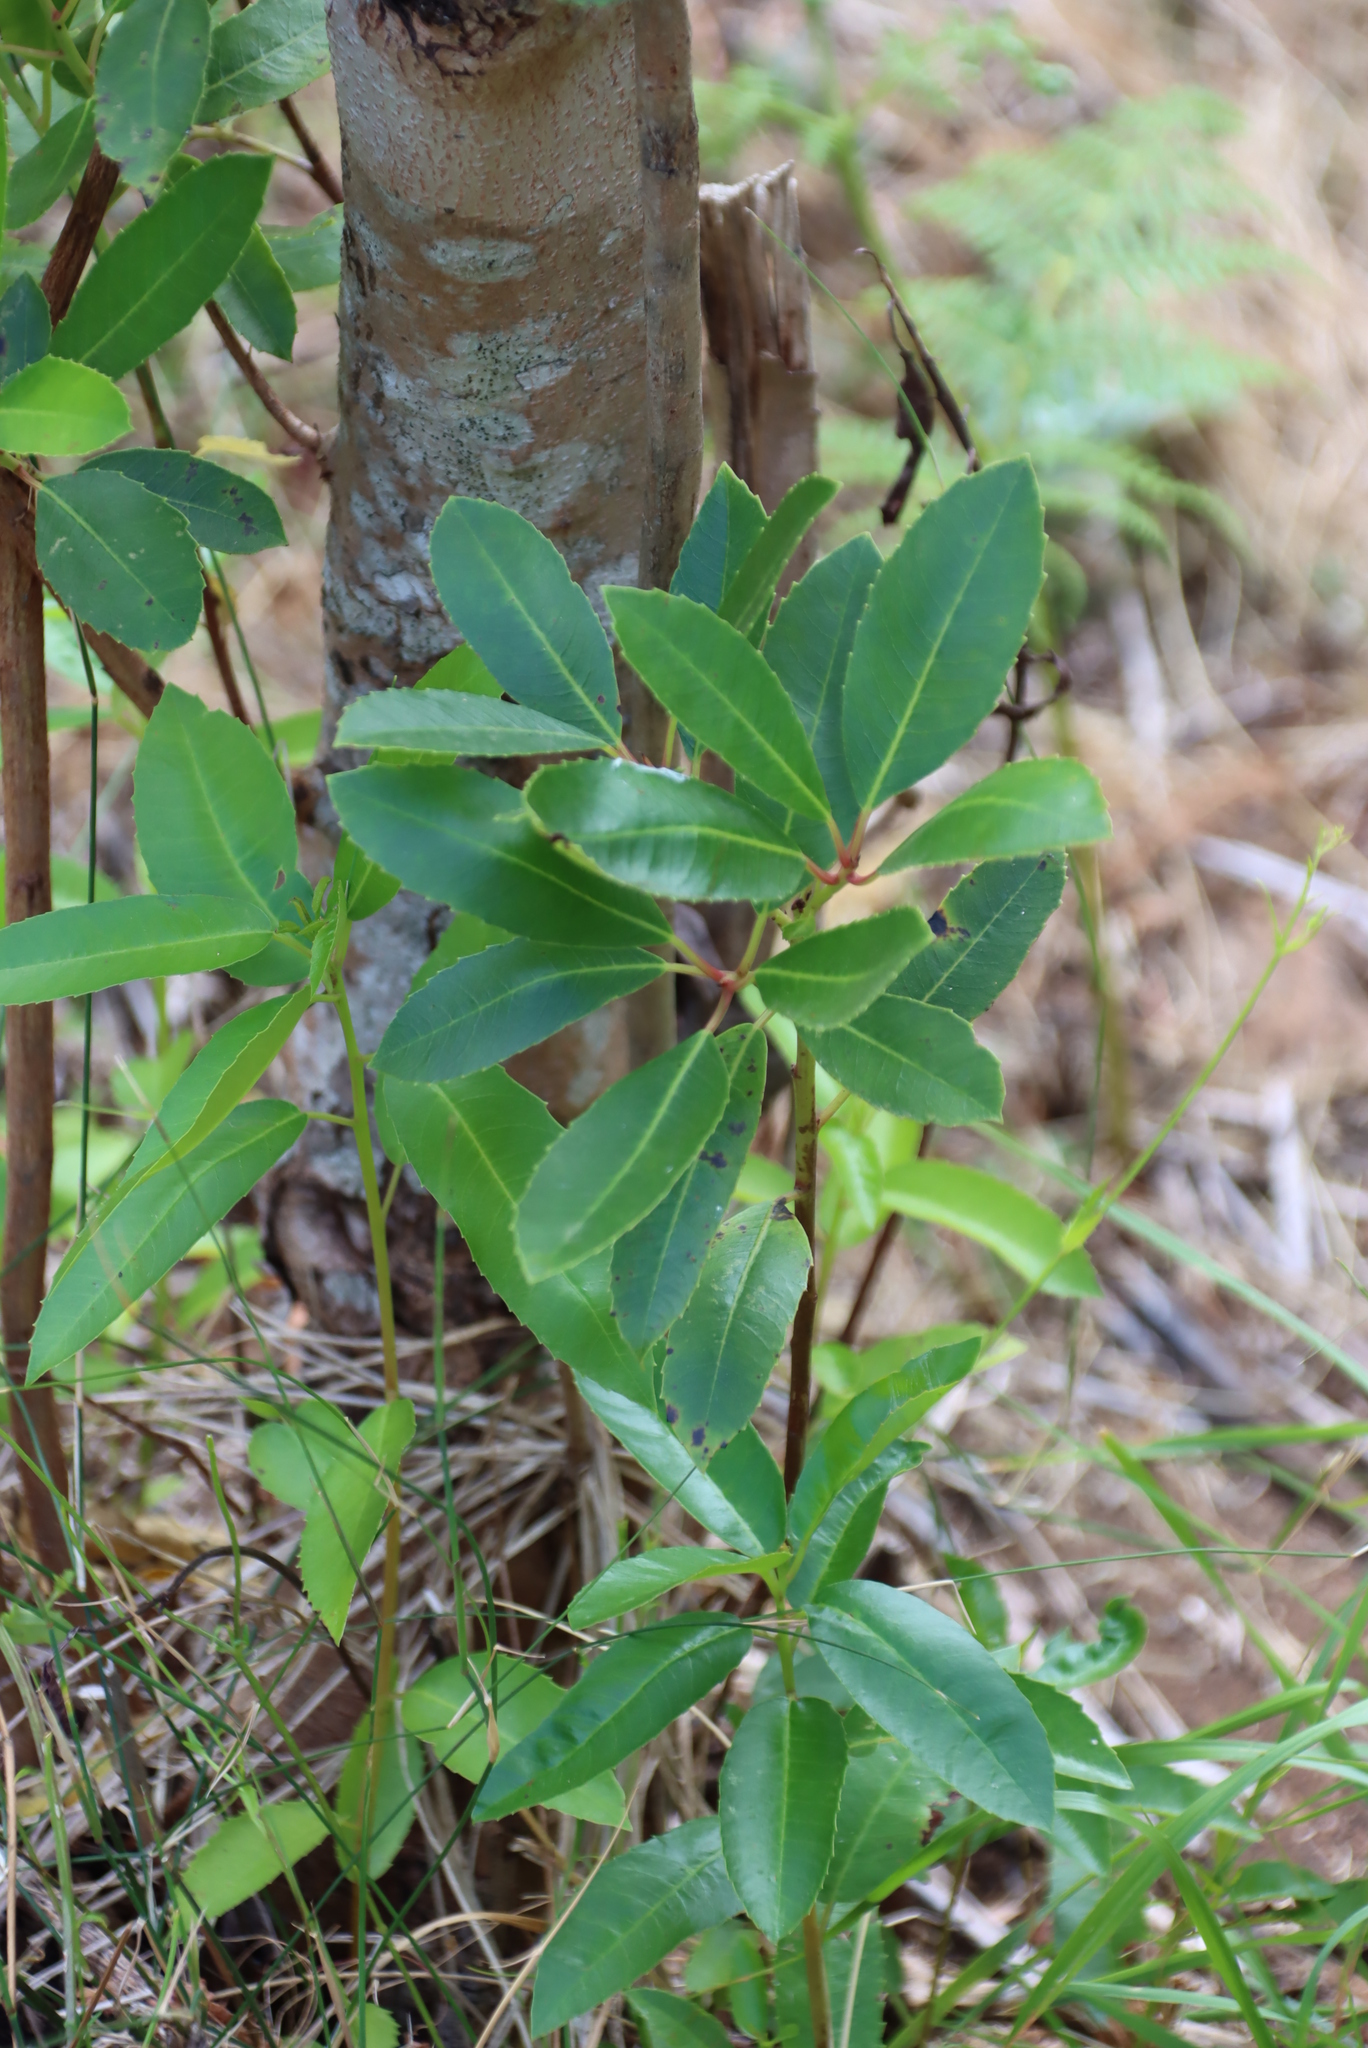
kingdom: Plantae
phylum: Tracheophyta
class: Magnoliopsida
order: Sapindales
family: Anacardiaceae
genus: Laurophyllus
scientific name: Laurophyllus capensis
